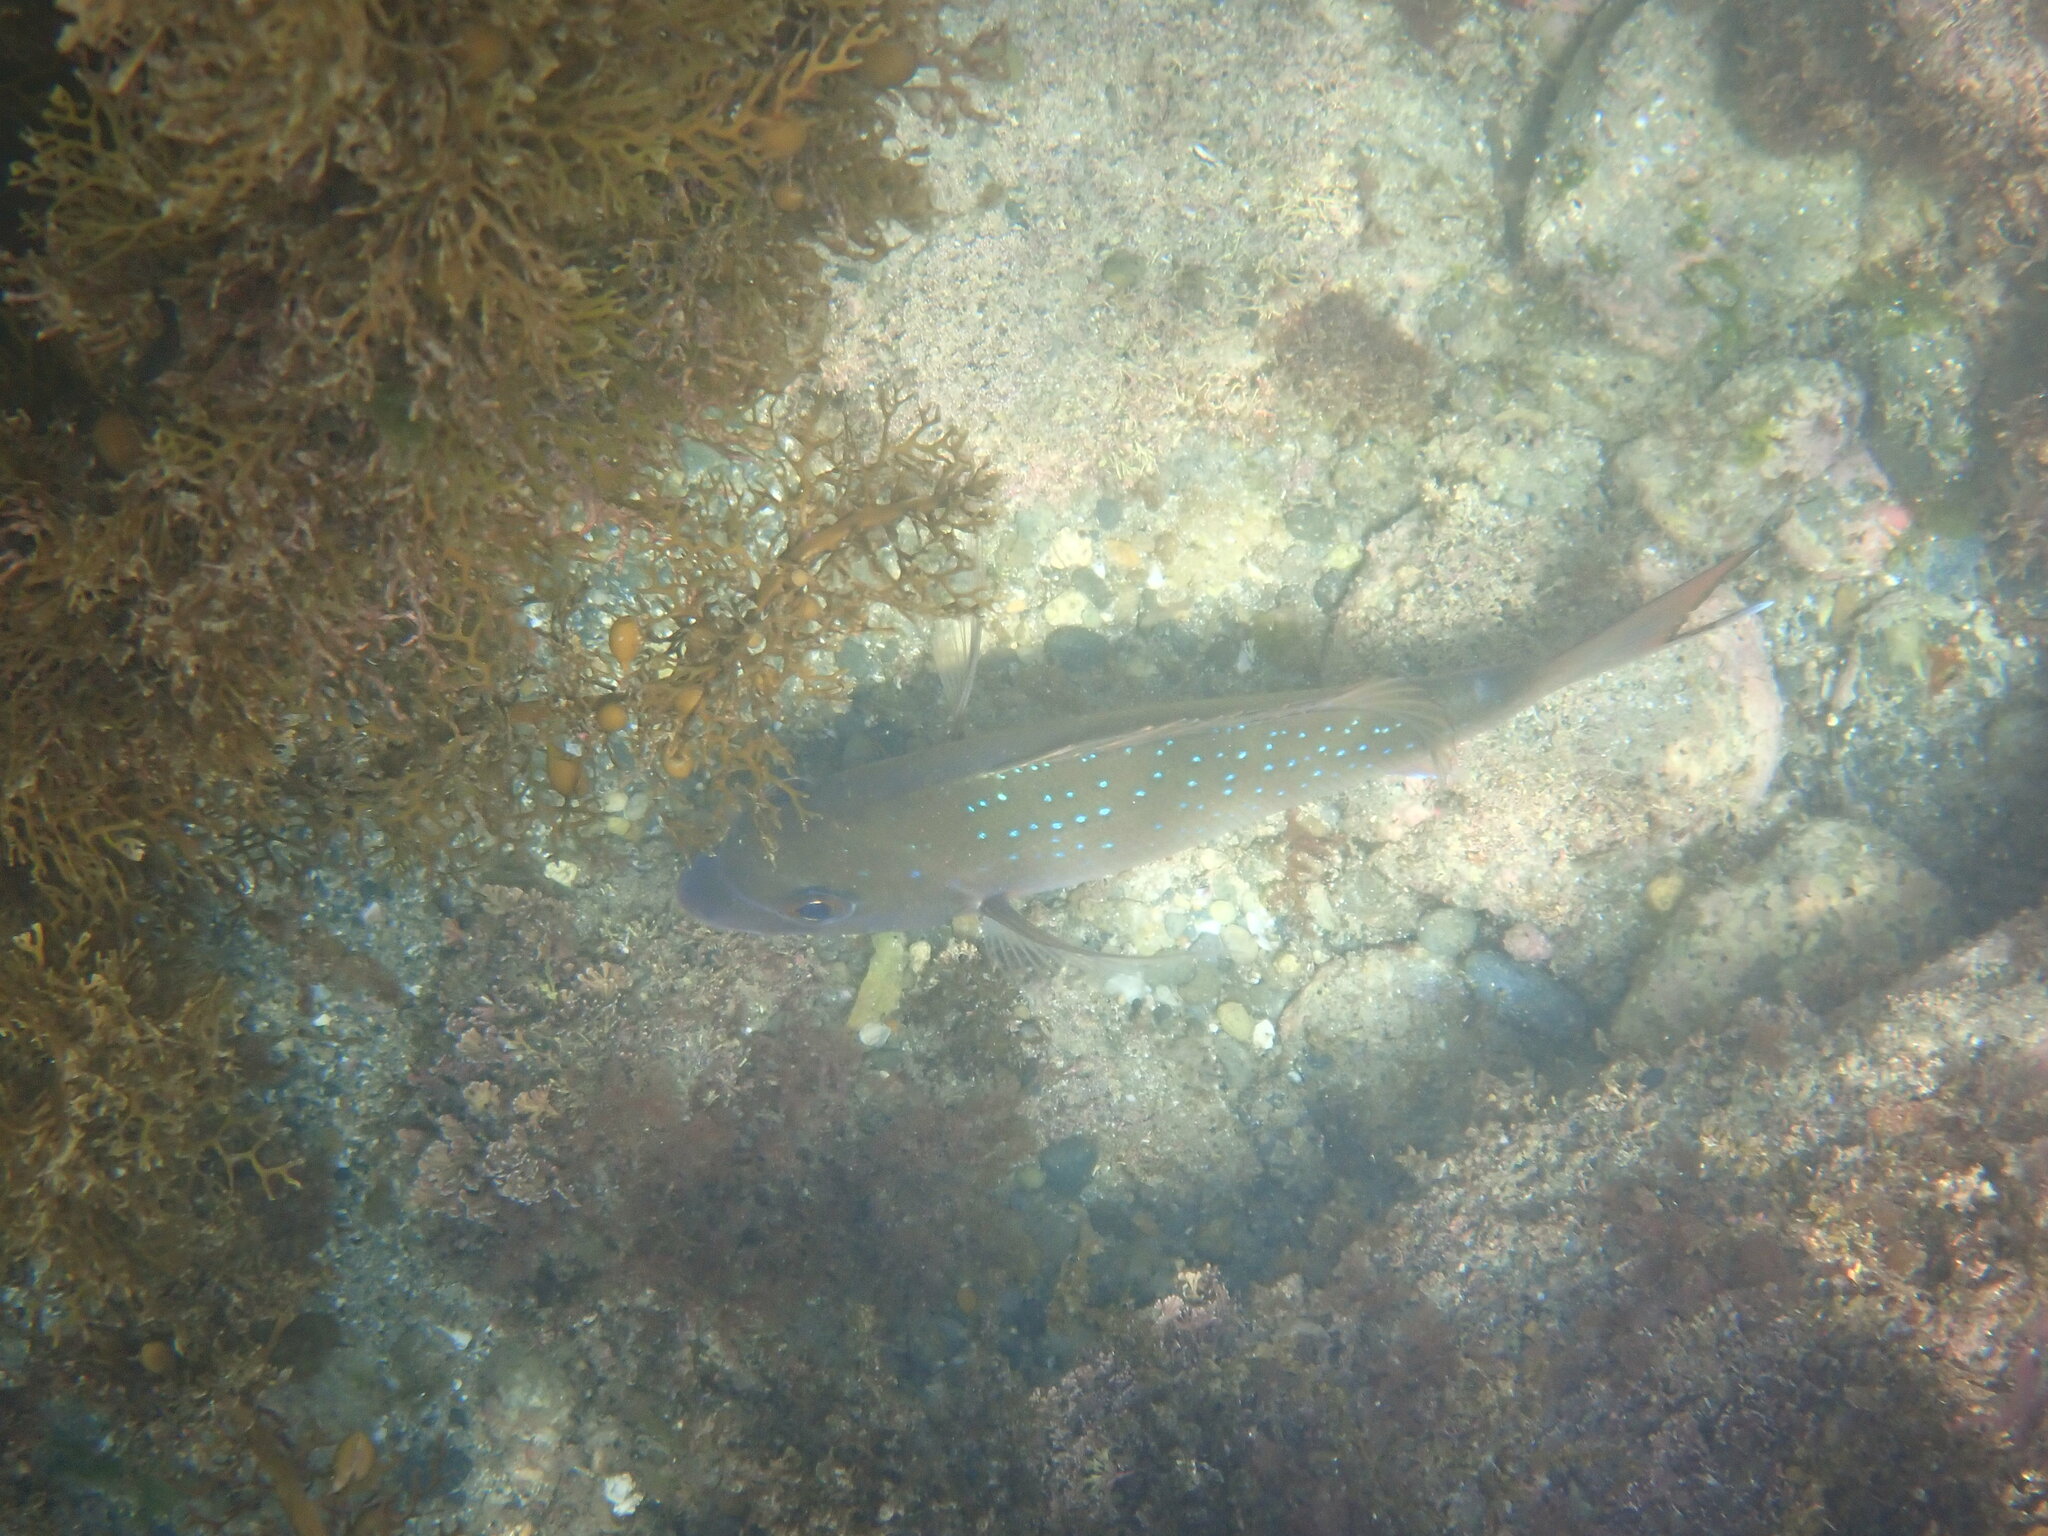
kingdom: Animalia
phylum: Chordata
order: Perciformes
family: Sparidae
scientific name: Sparidae
